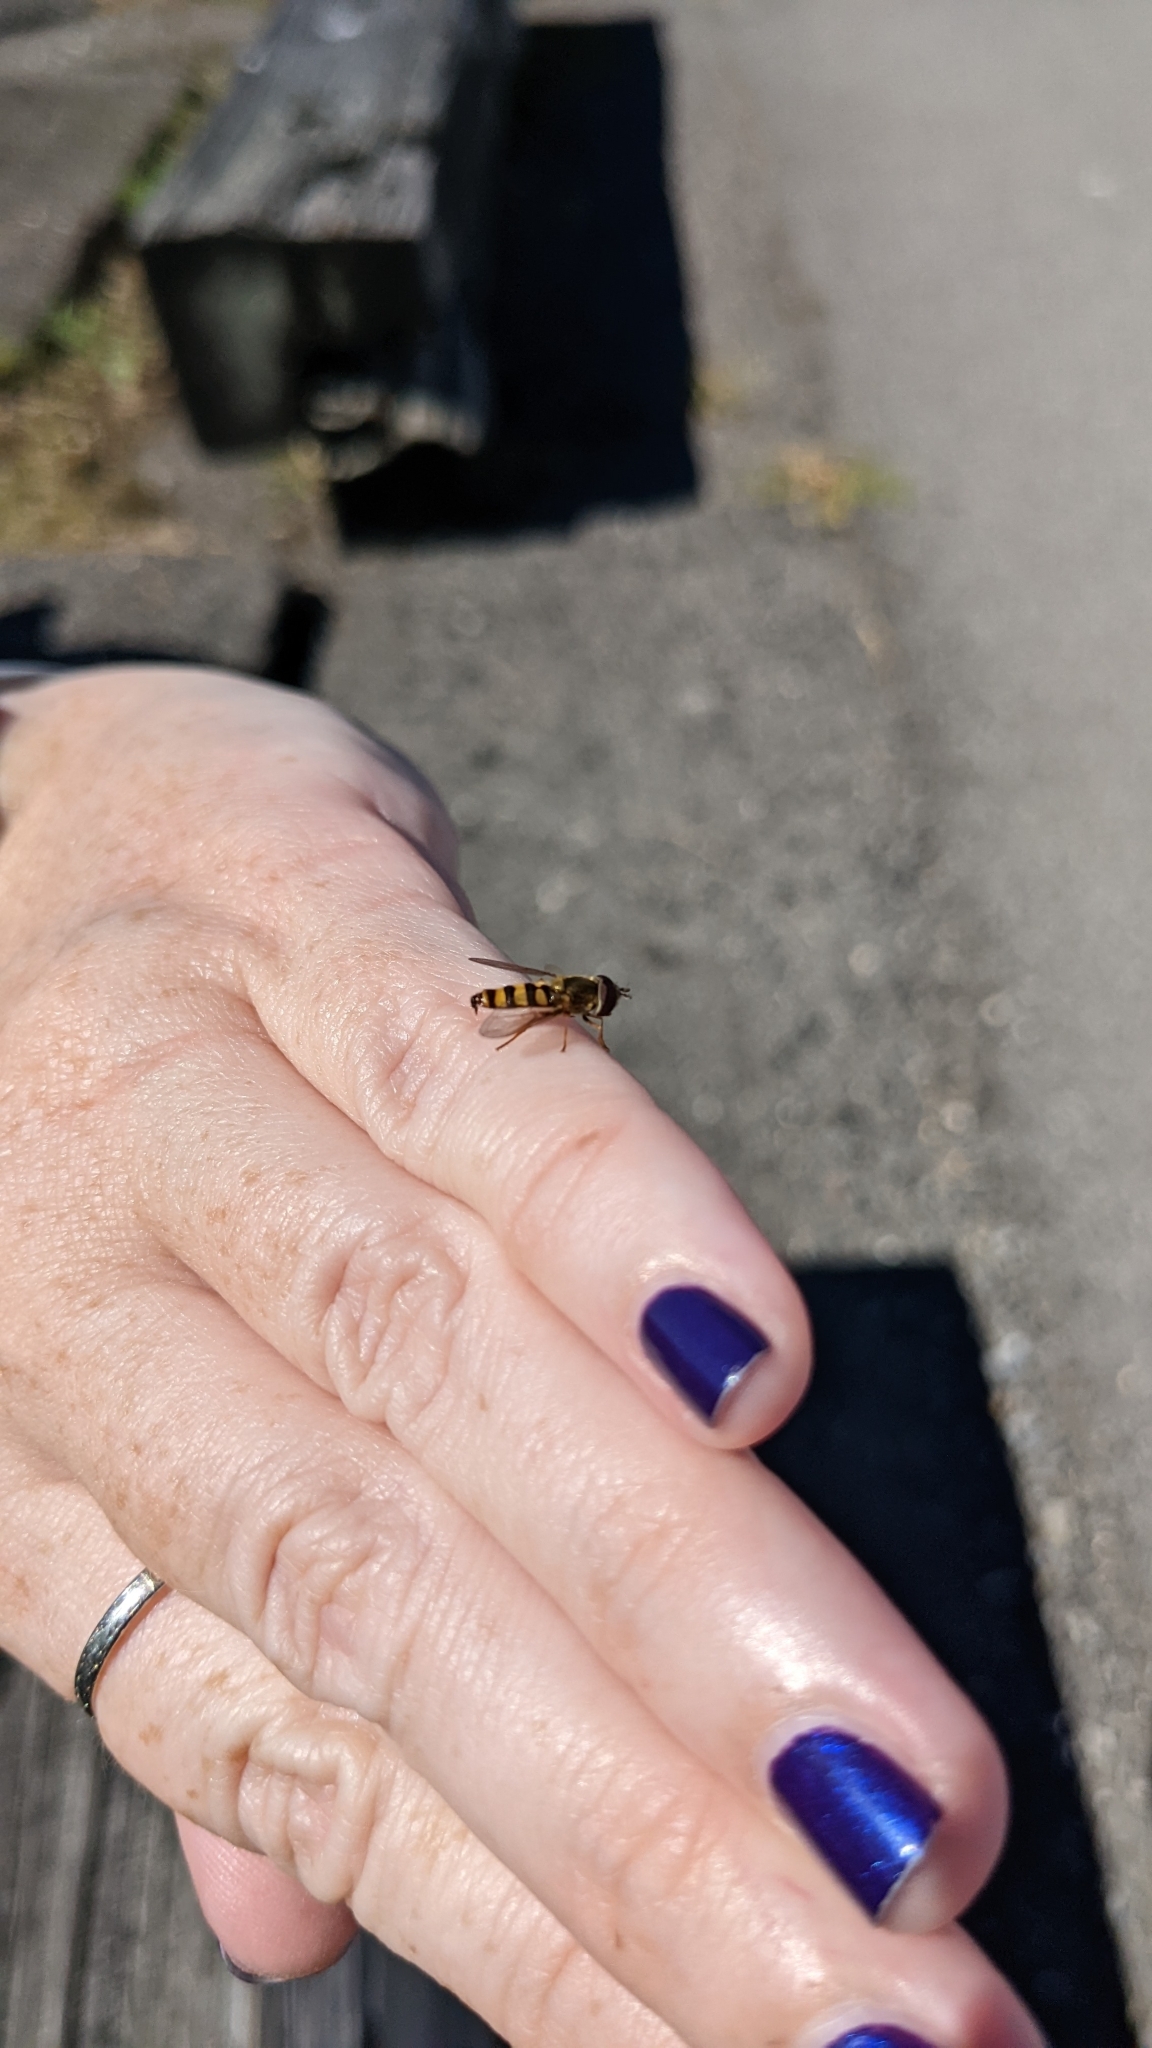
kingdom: Animalia
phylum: Arthropoda
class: Insecta
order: Diptera
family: Syrphidae
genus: Eupeodes
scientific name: Eupeodes
